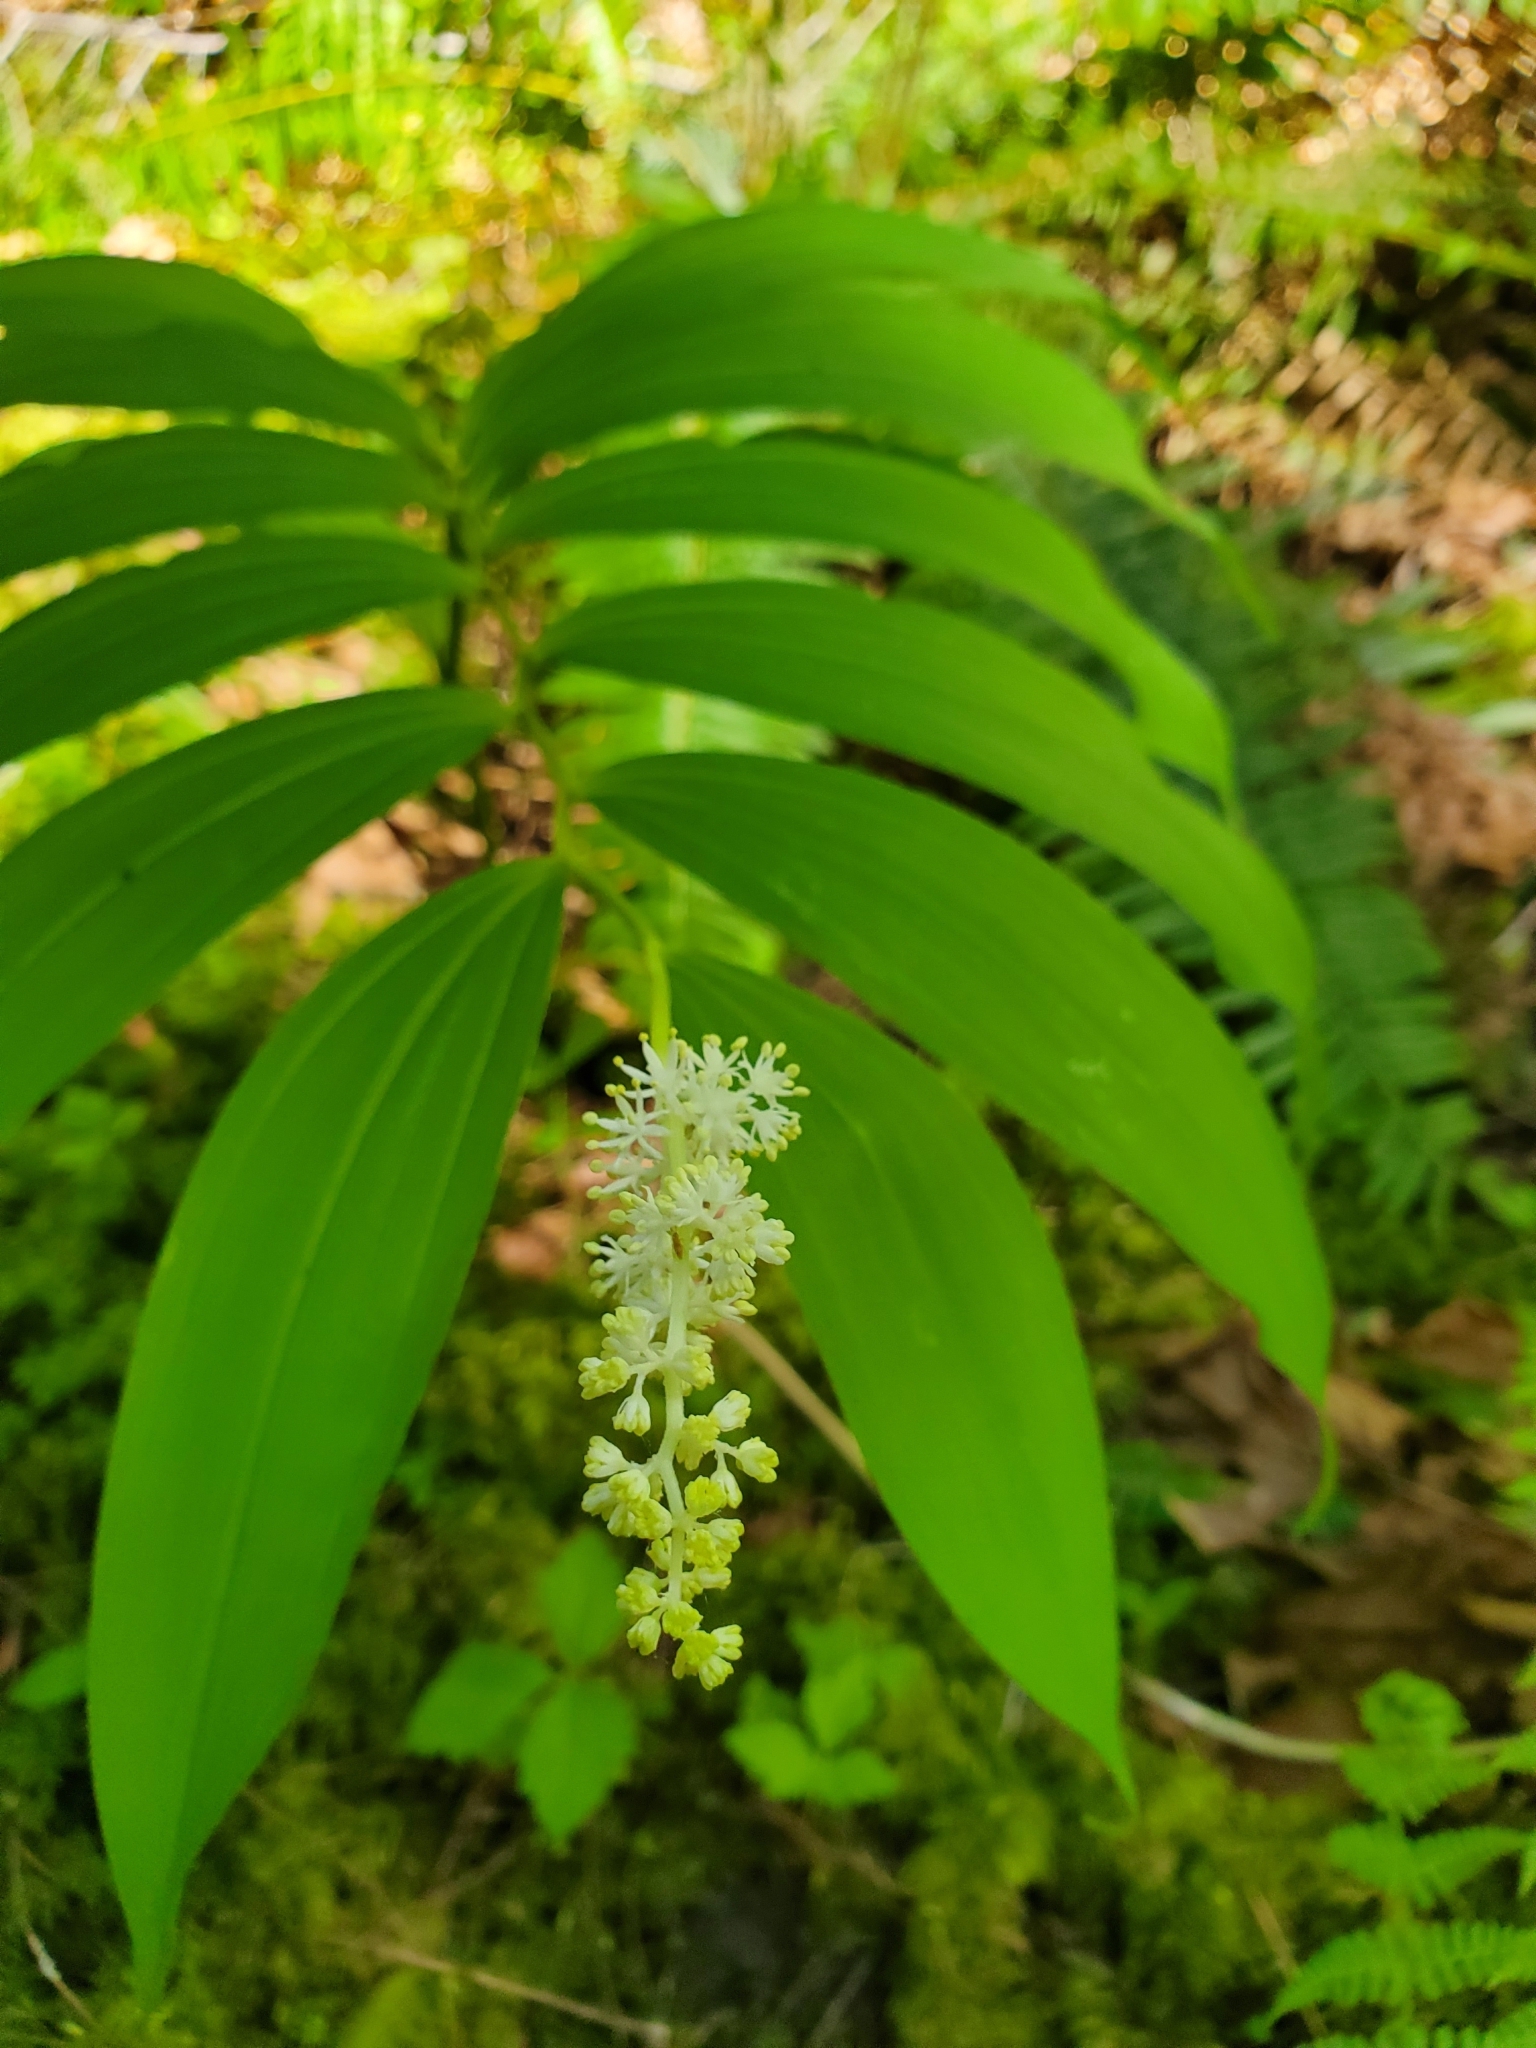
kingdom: Plantae
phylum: Tracheophyta
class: Liliopsida
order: Asparagales
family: Asparagaceae
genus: Maianthemum
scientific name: Maianthemum racemosum
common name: False spikenard
